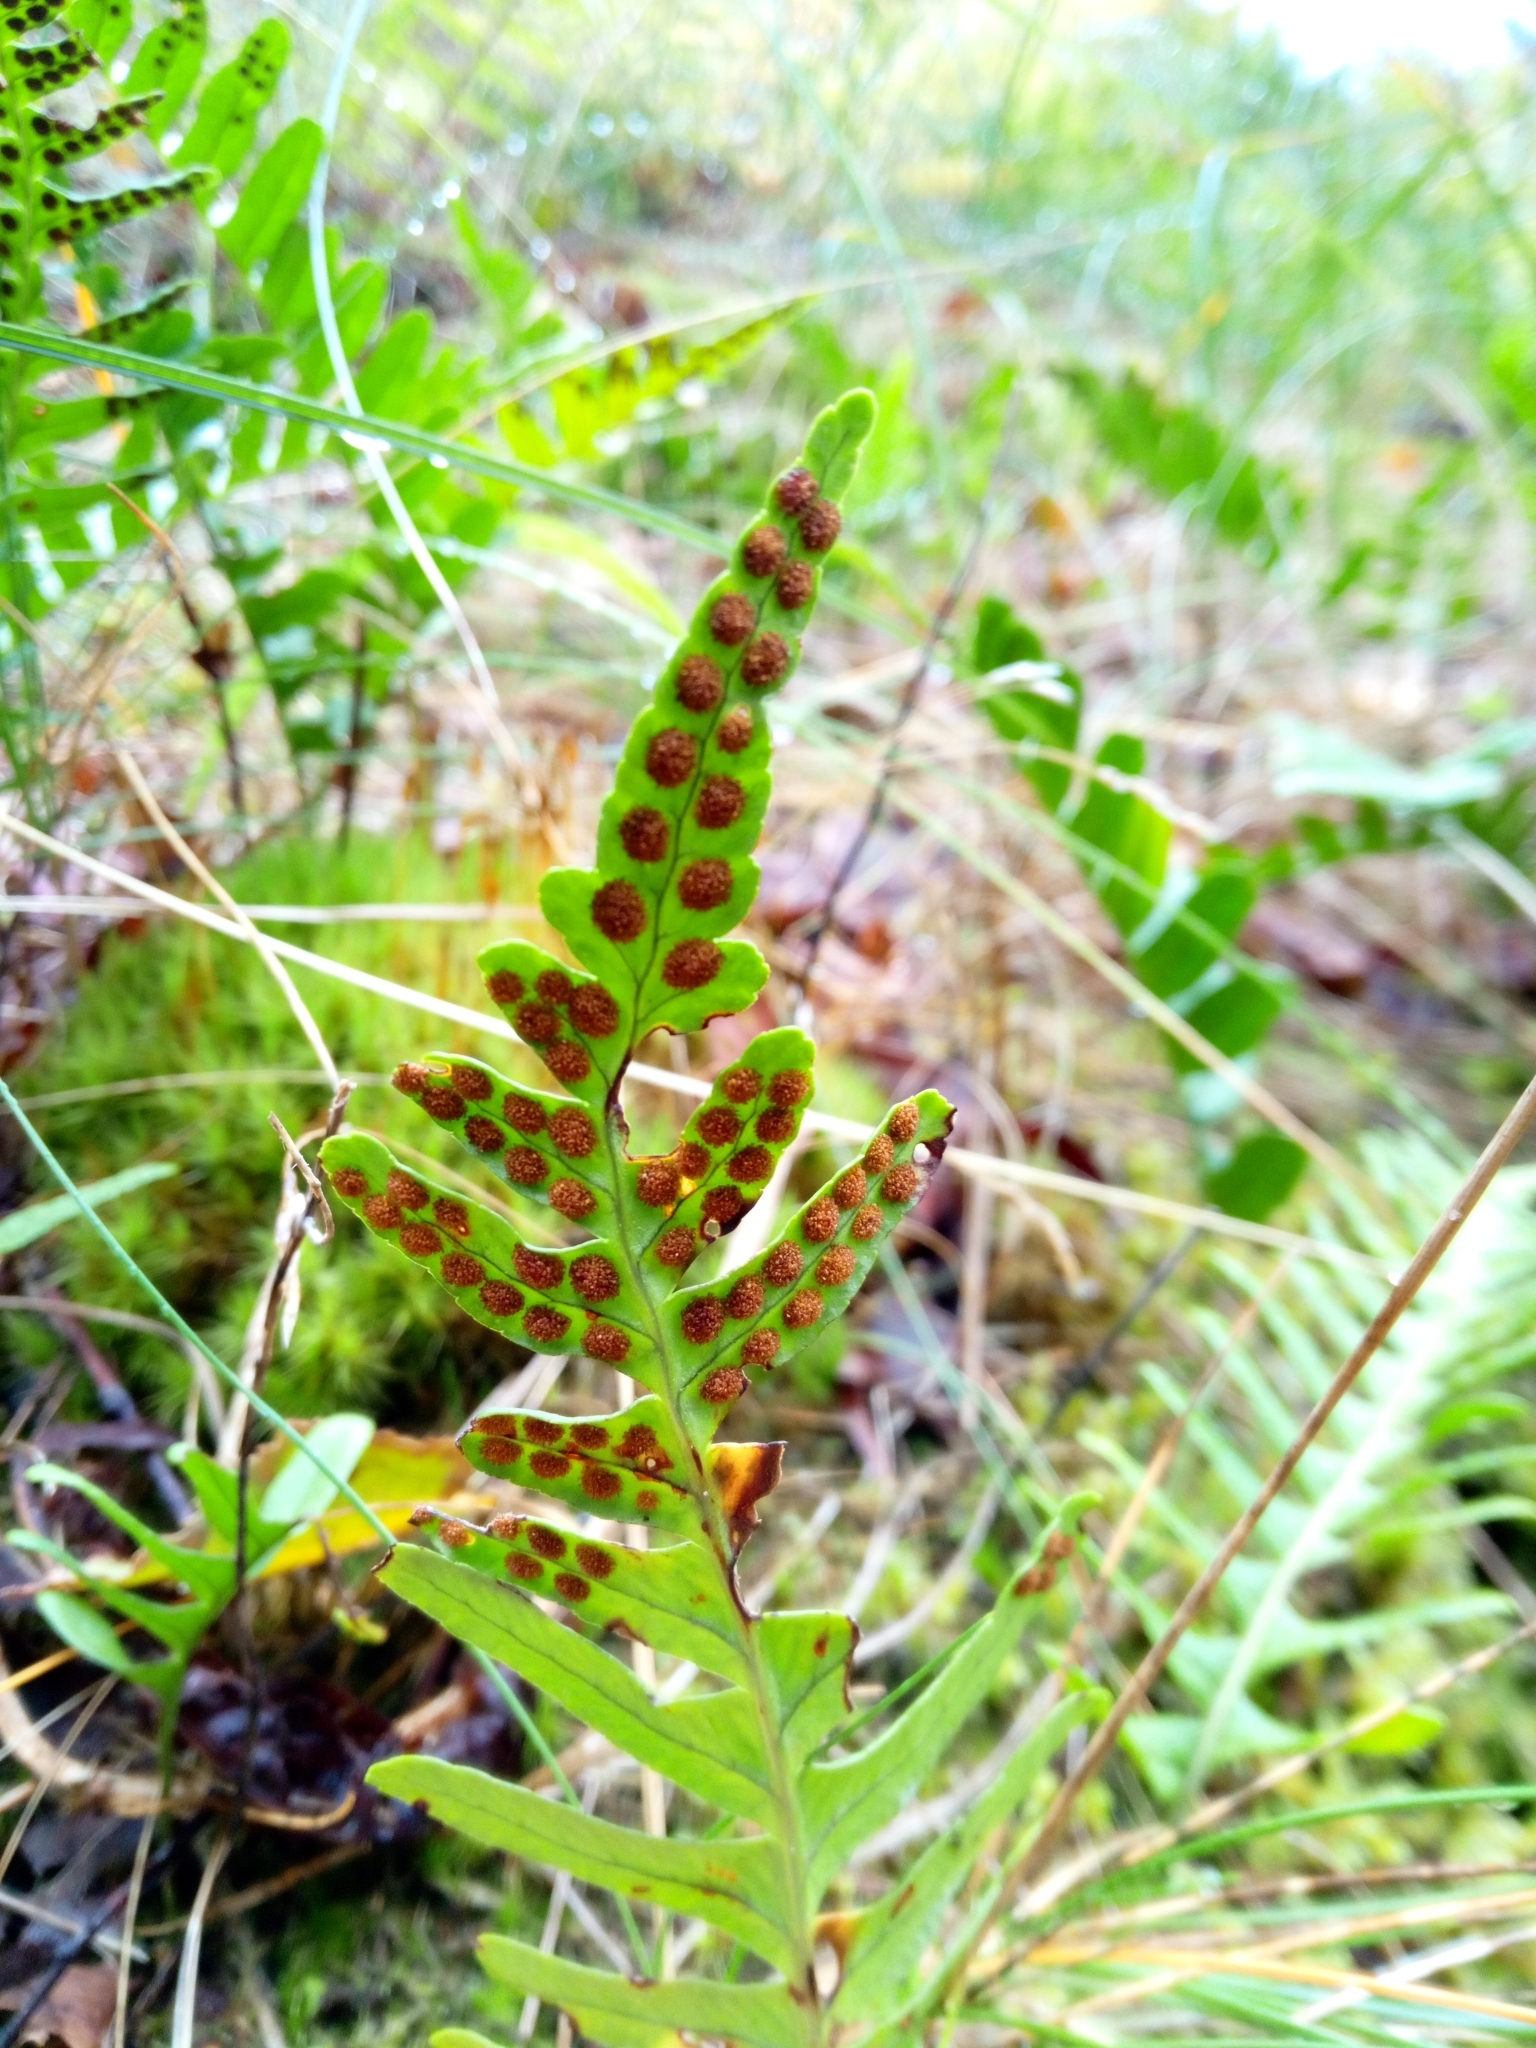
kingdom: Plantae
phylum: Tracheophyta
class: Polypodiopsida
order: Polypodiales
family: Polypodiaceae
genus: Polypodium
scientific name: Polypodium vulgare
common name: Common polypody
